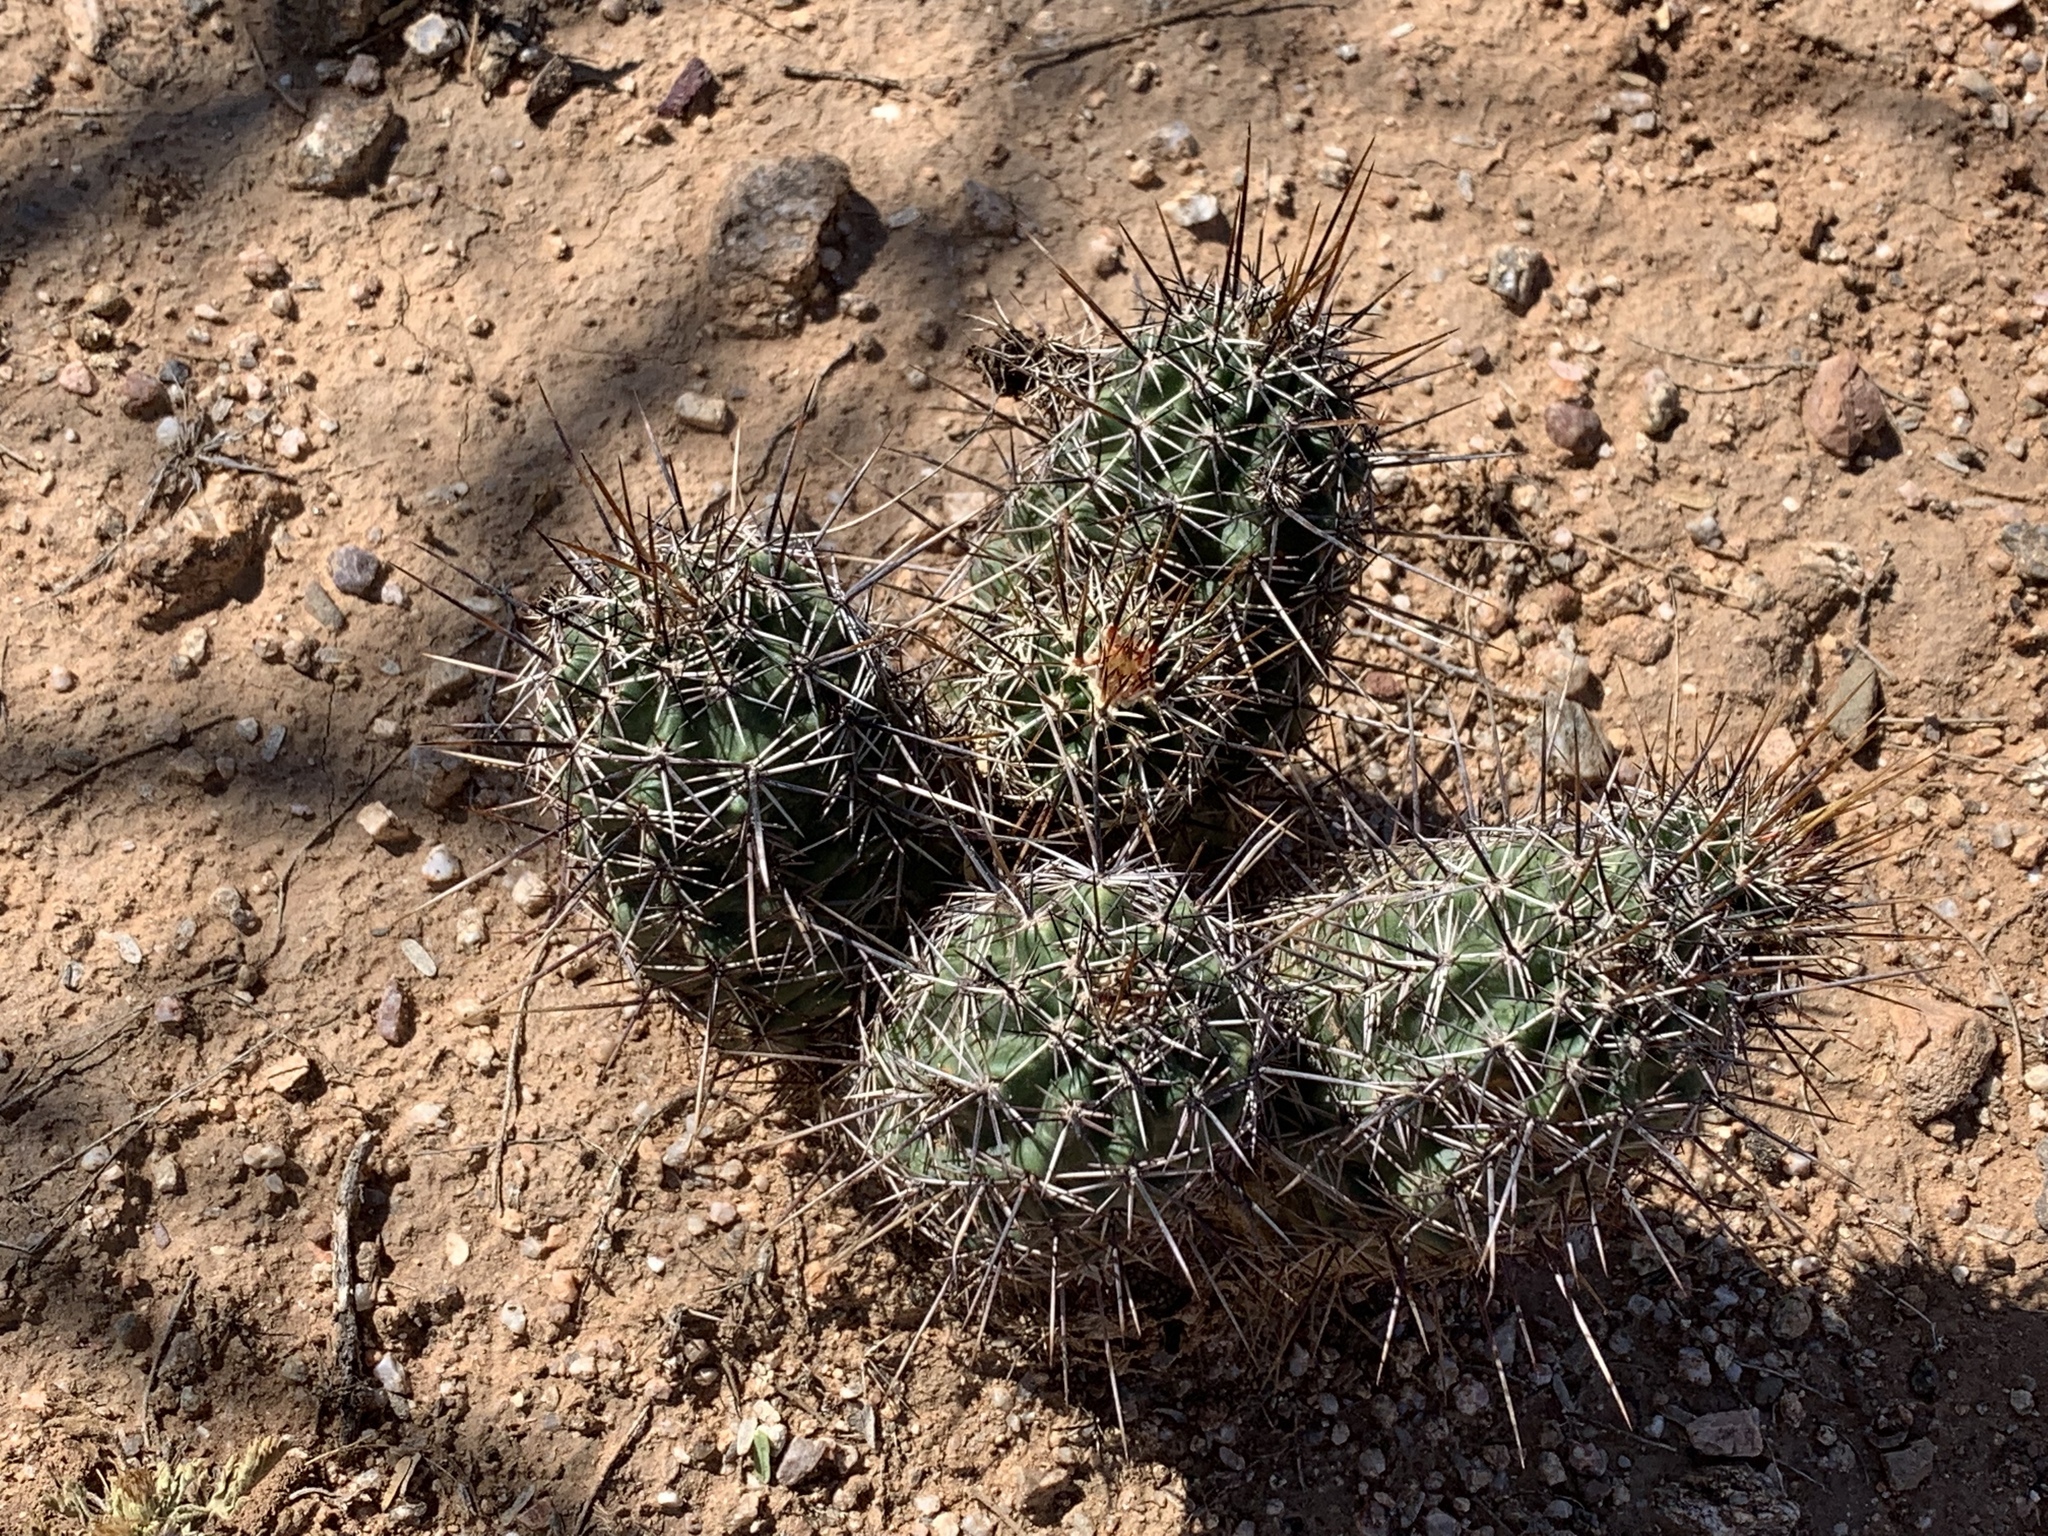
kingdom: Plantae
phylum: Tracheophyta
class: Magnoliopsida
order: Caryophyllales
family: Cactaceae
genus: Echinocereus
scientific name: Echinocereus fasciculatus
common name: Bundle hedgehog
